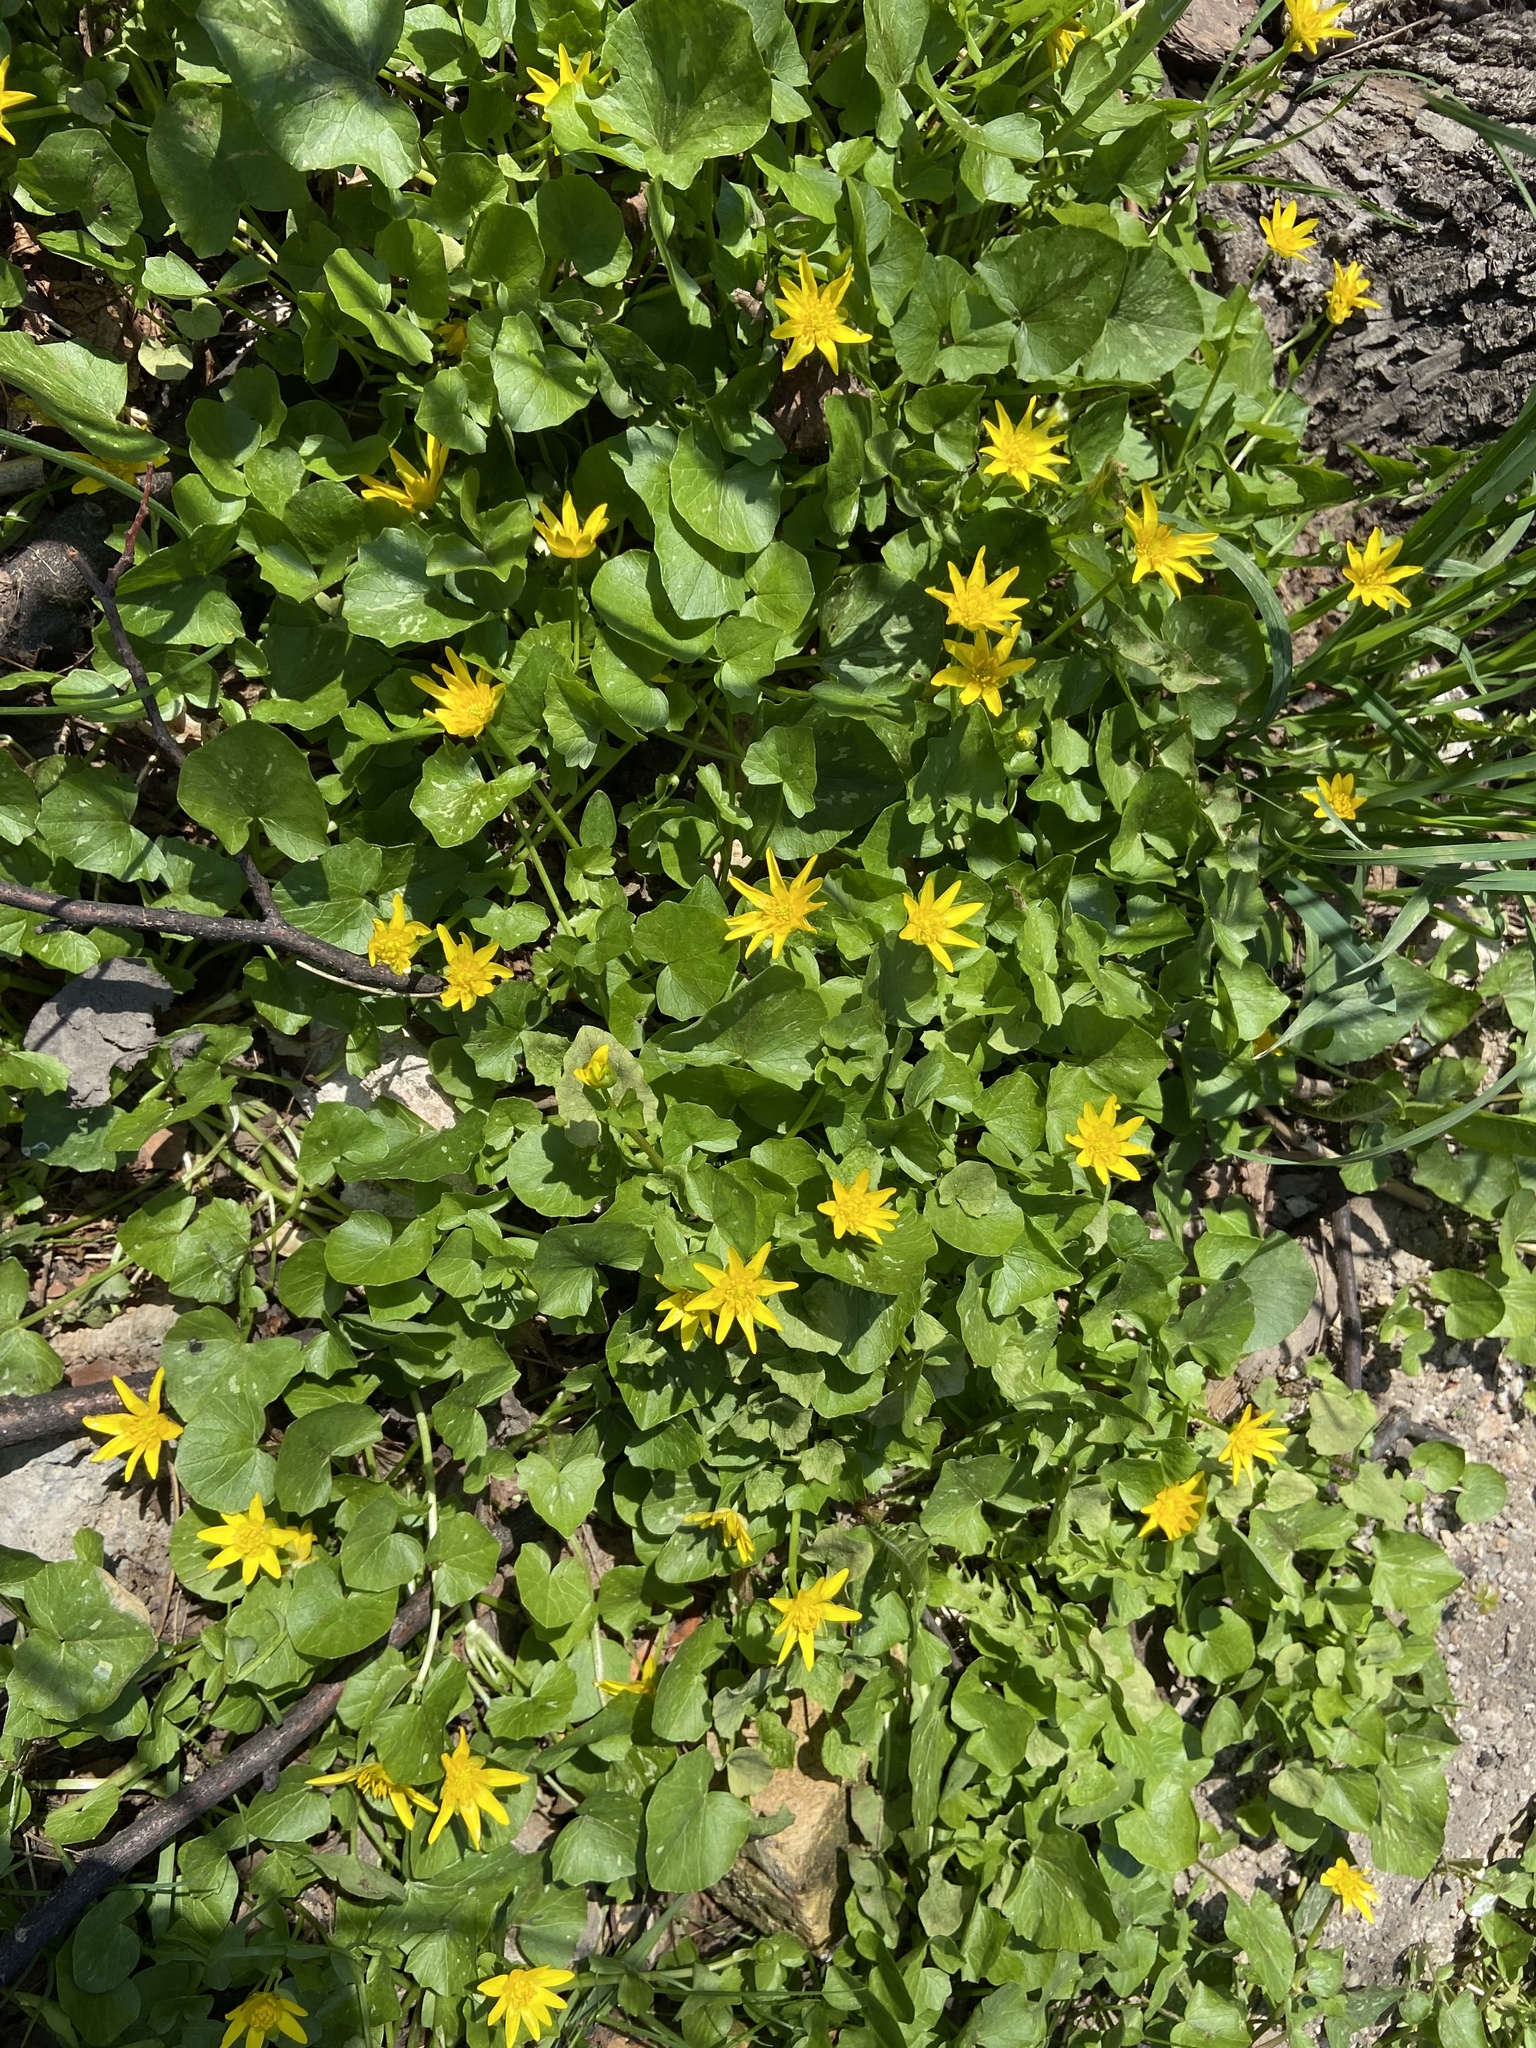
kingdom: Plantae
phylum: Tracheophyta
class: Magnoliopsida
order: Ranunculales
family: Ranunculaceae
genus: Ficaria
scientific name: Ficaria verna
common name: Lesser celandine
